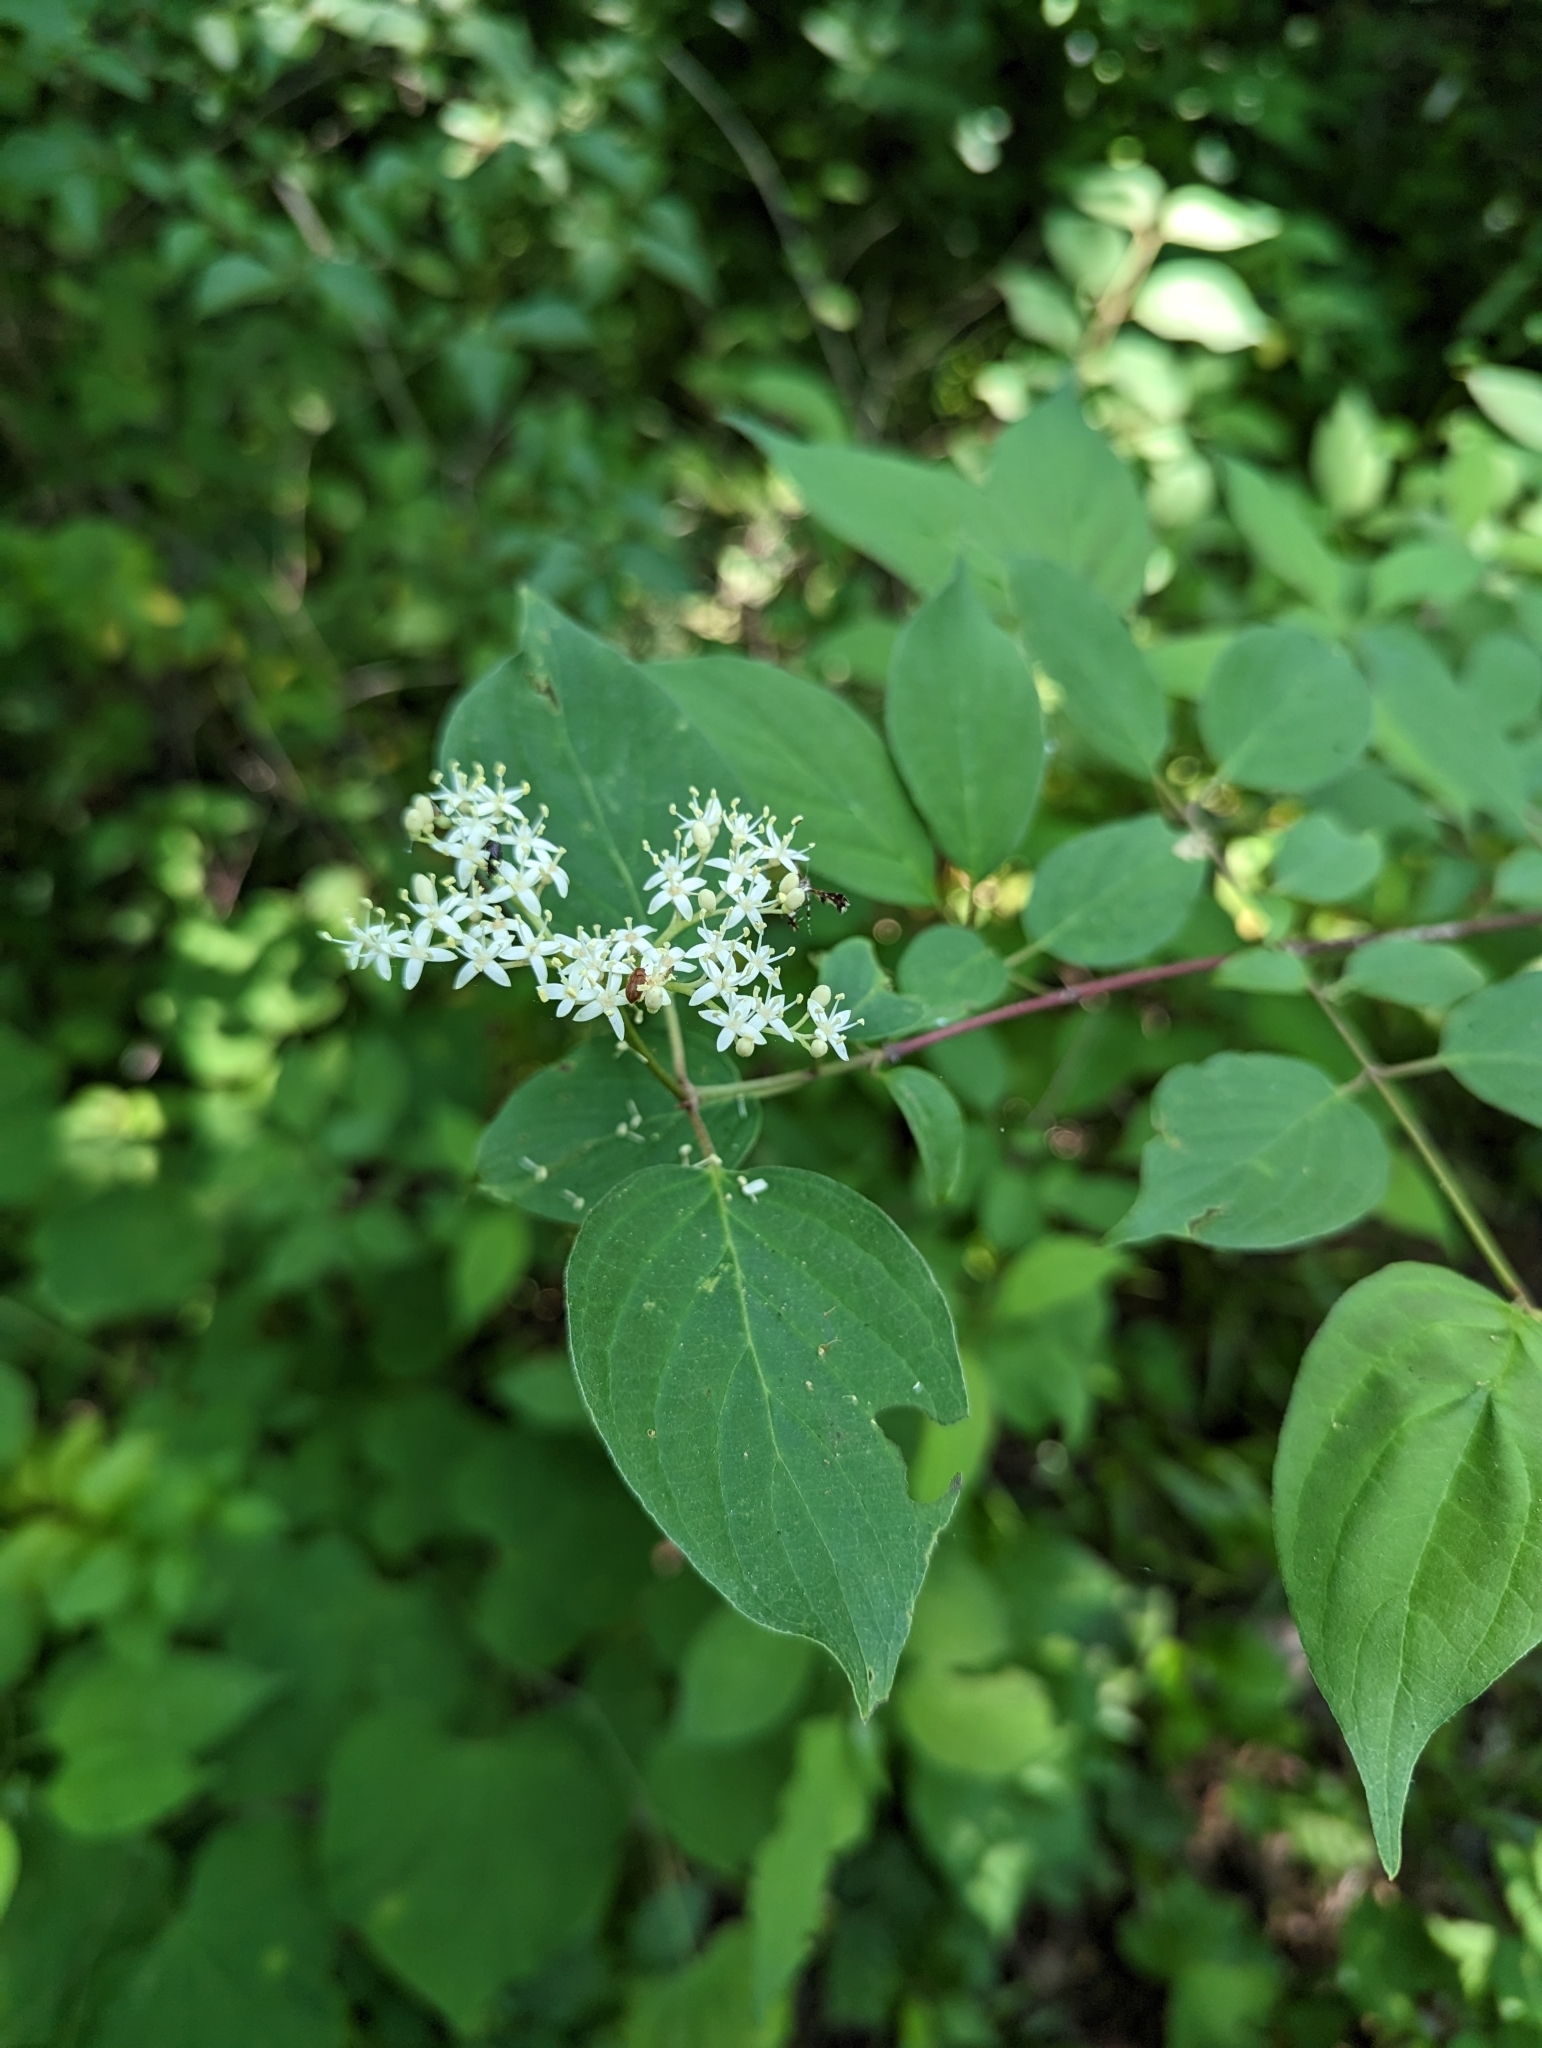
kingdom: Plantae
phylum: Tracheophyta
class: Magnoliopsida
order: Cornales
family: Cornaceae
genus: Cornus
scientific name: Cornus drummondii
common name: Rough-leaf dogwood
